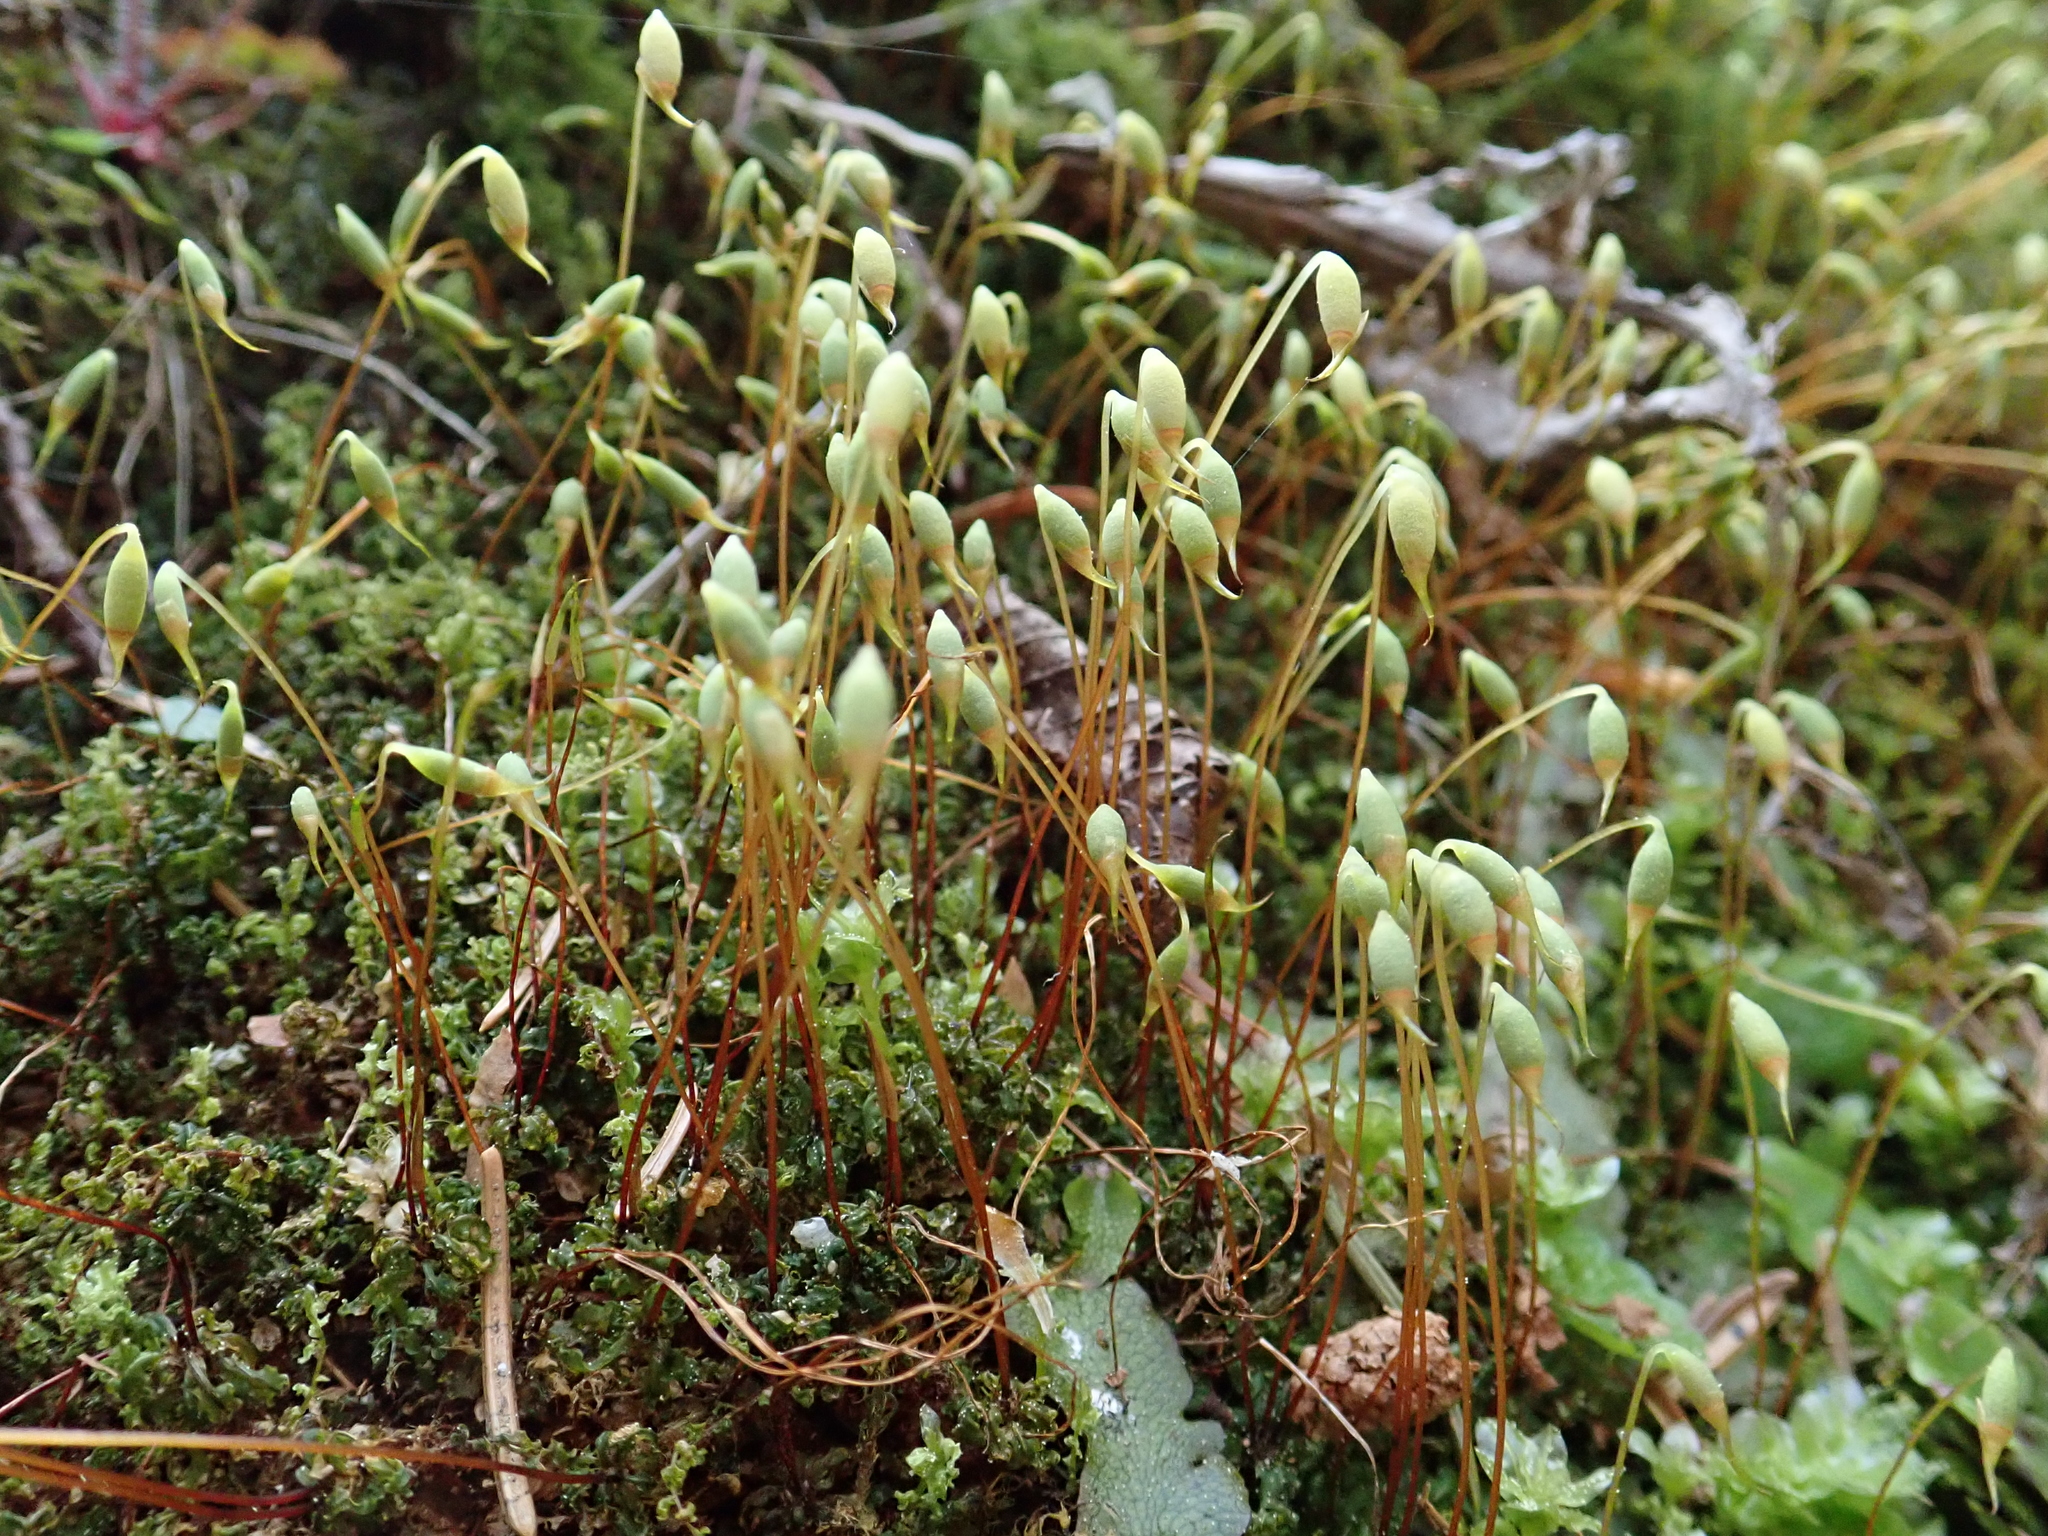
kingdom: Plantae
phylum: Bryophyta
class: Bryopsida
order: Bryales
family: Mniaceae
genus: Plagiomnium
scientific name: Plagiomnium rostratum
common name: Long-beaked leafy moss
